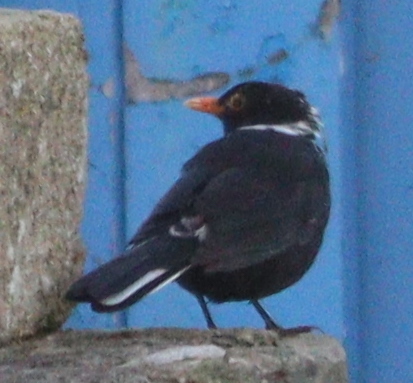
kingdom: Animalia
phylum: Chordata
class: Aves
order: Passeriformes
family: Turdidae
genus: Turdus
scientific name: Turdus merula
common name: Common blackbird
